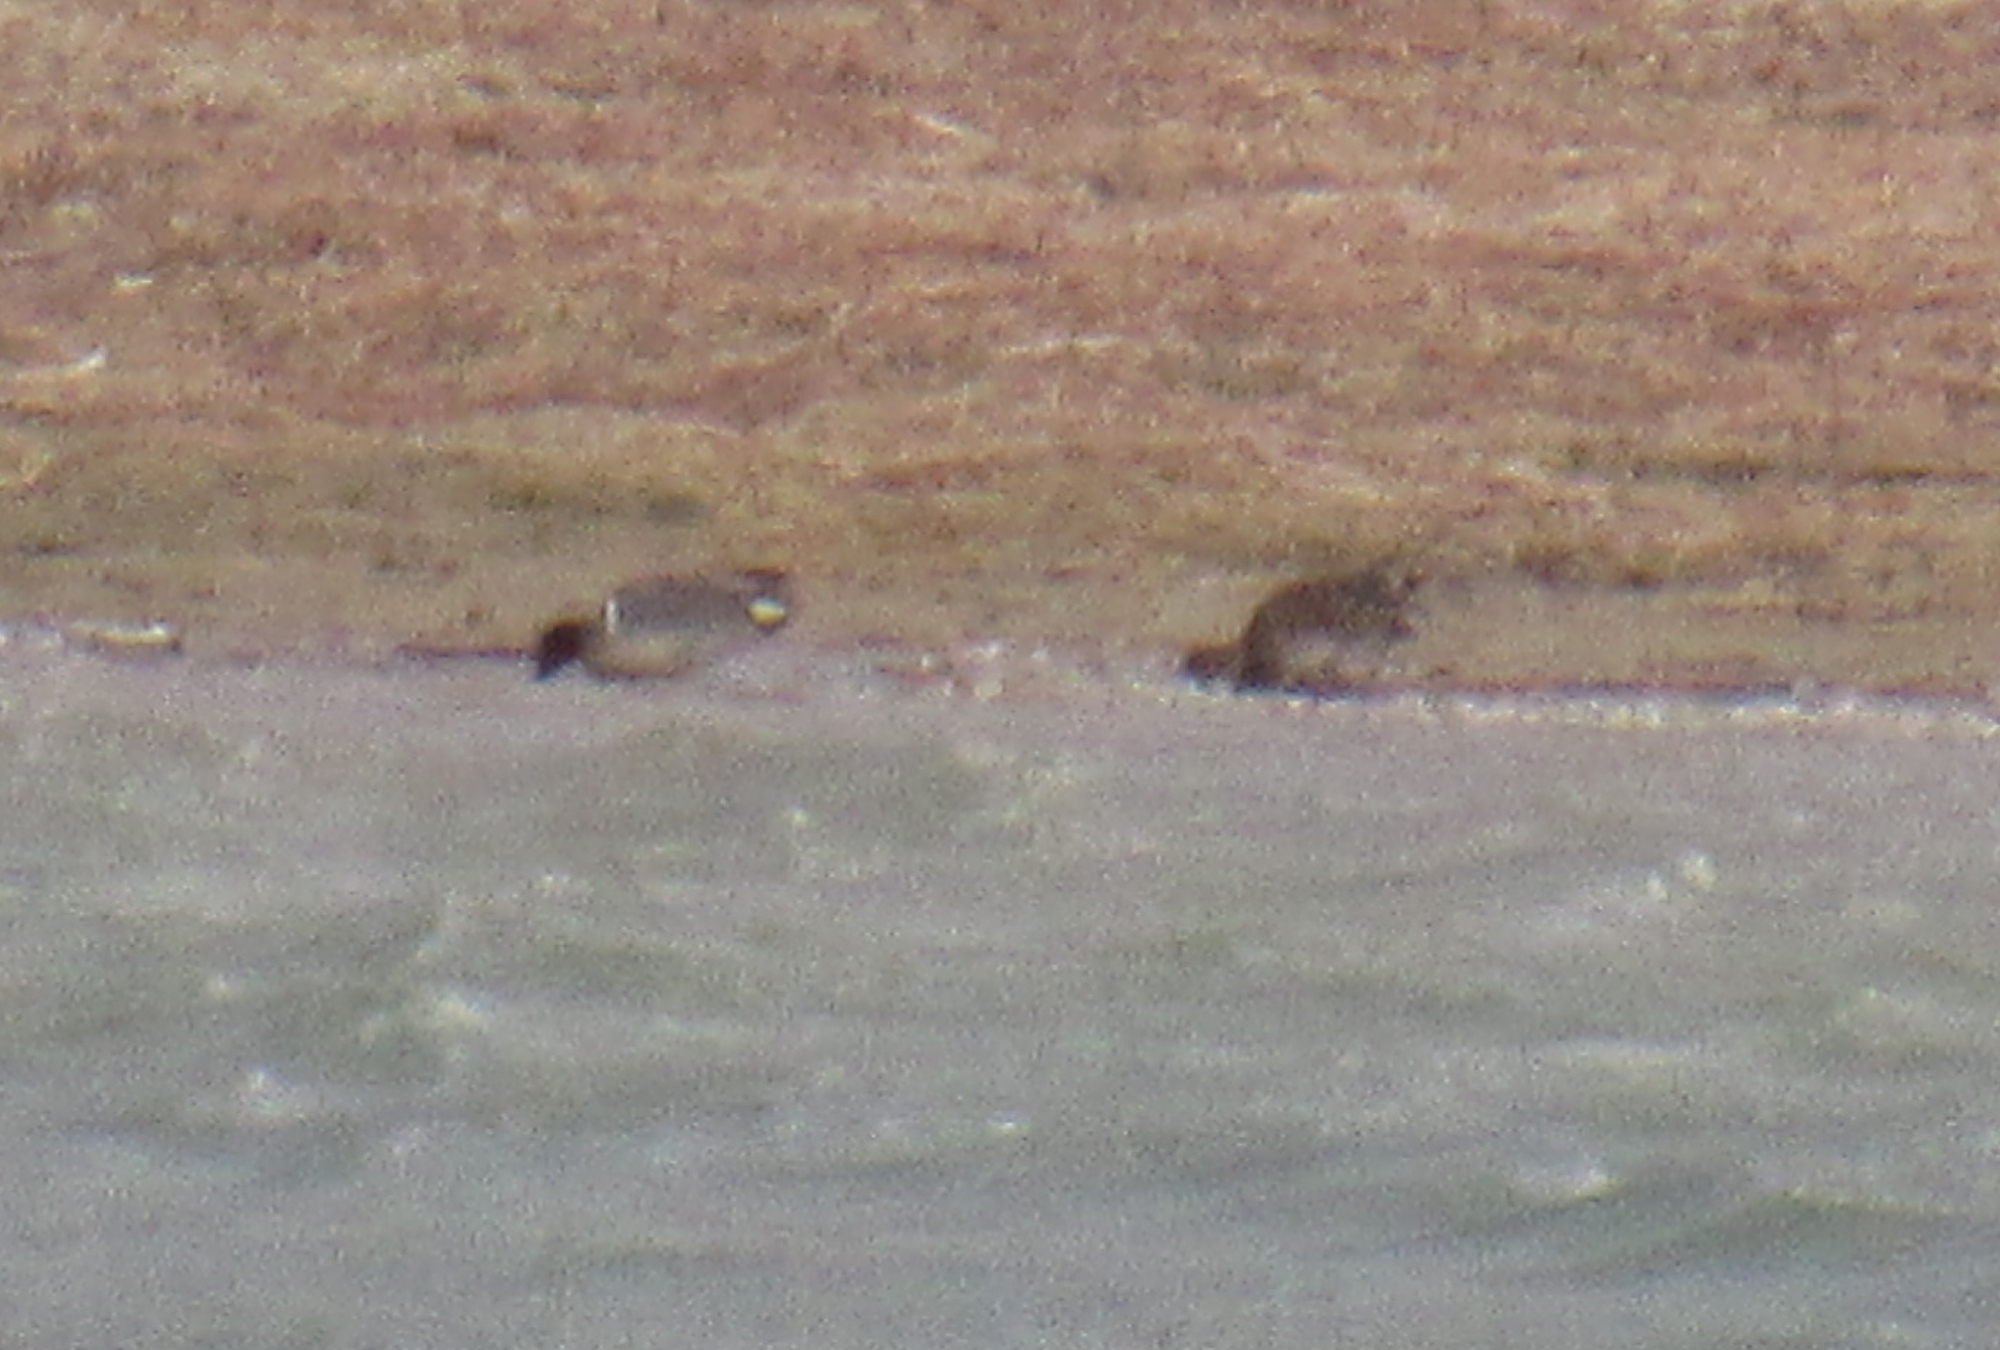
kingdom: Animalia
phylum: Chordata
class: Aves
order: Anseriformes
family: Anatidae
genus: Anas
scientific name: Anas carolinensis
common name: Green-winged teal
